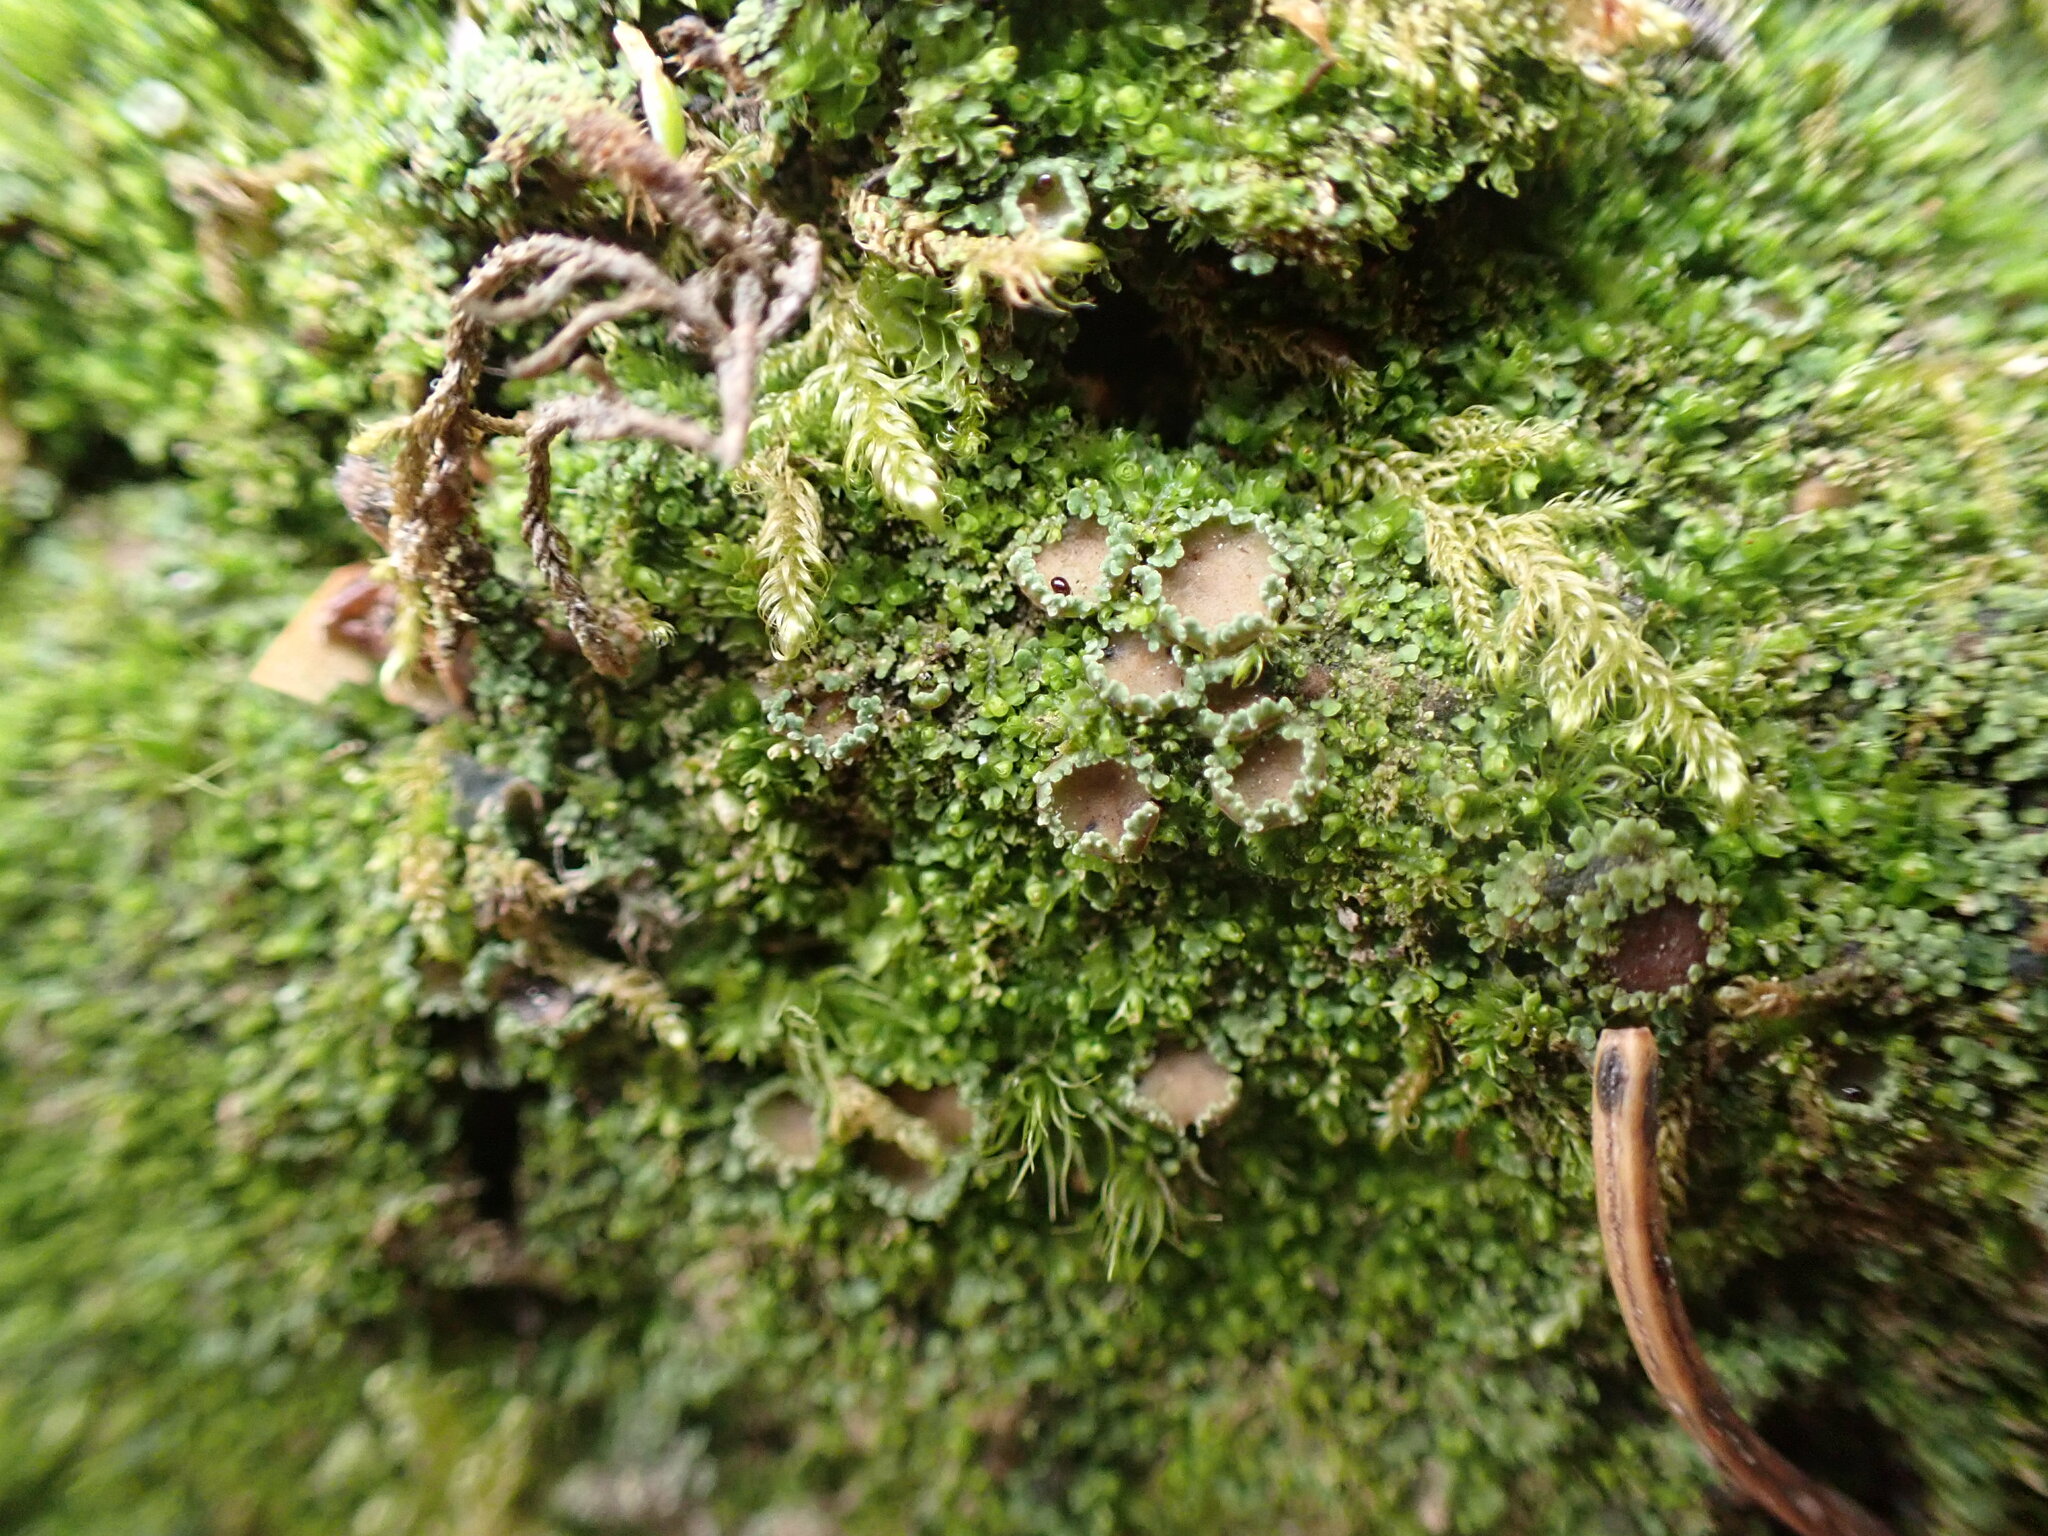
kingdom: Fungi
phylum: Ascomycota
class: Lecanoromycetes
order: Peltigerales
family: Pannariaceae
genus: Psoroma
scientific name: Psoroma hypnorum
